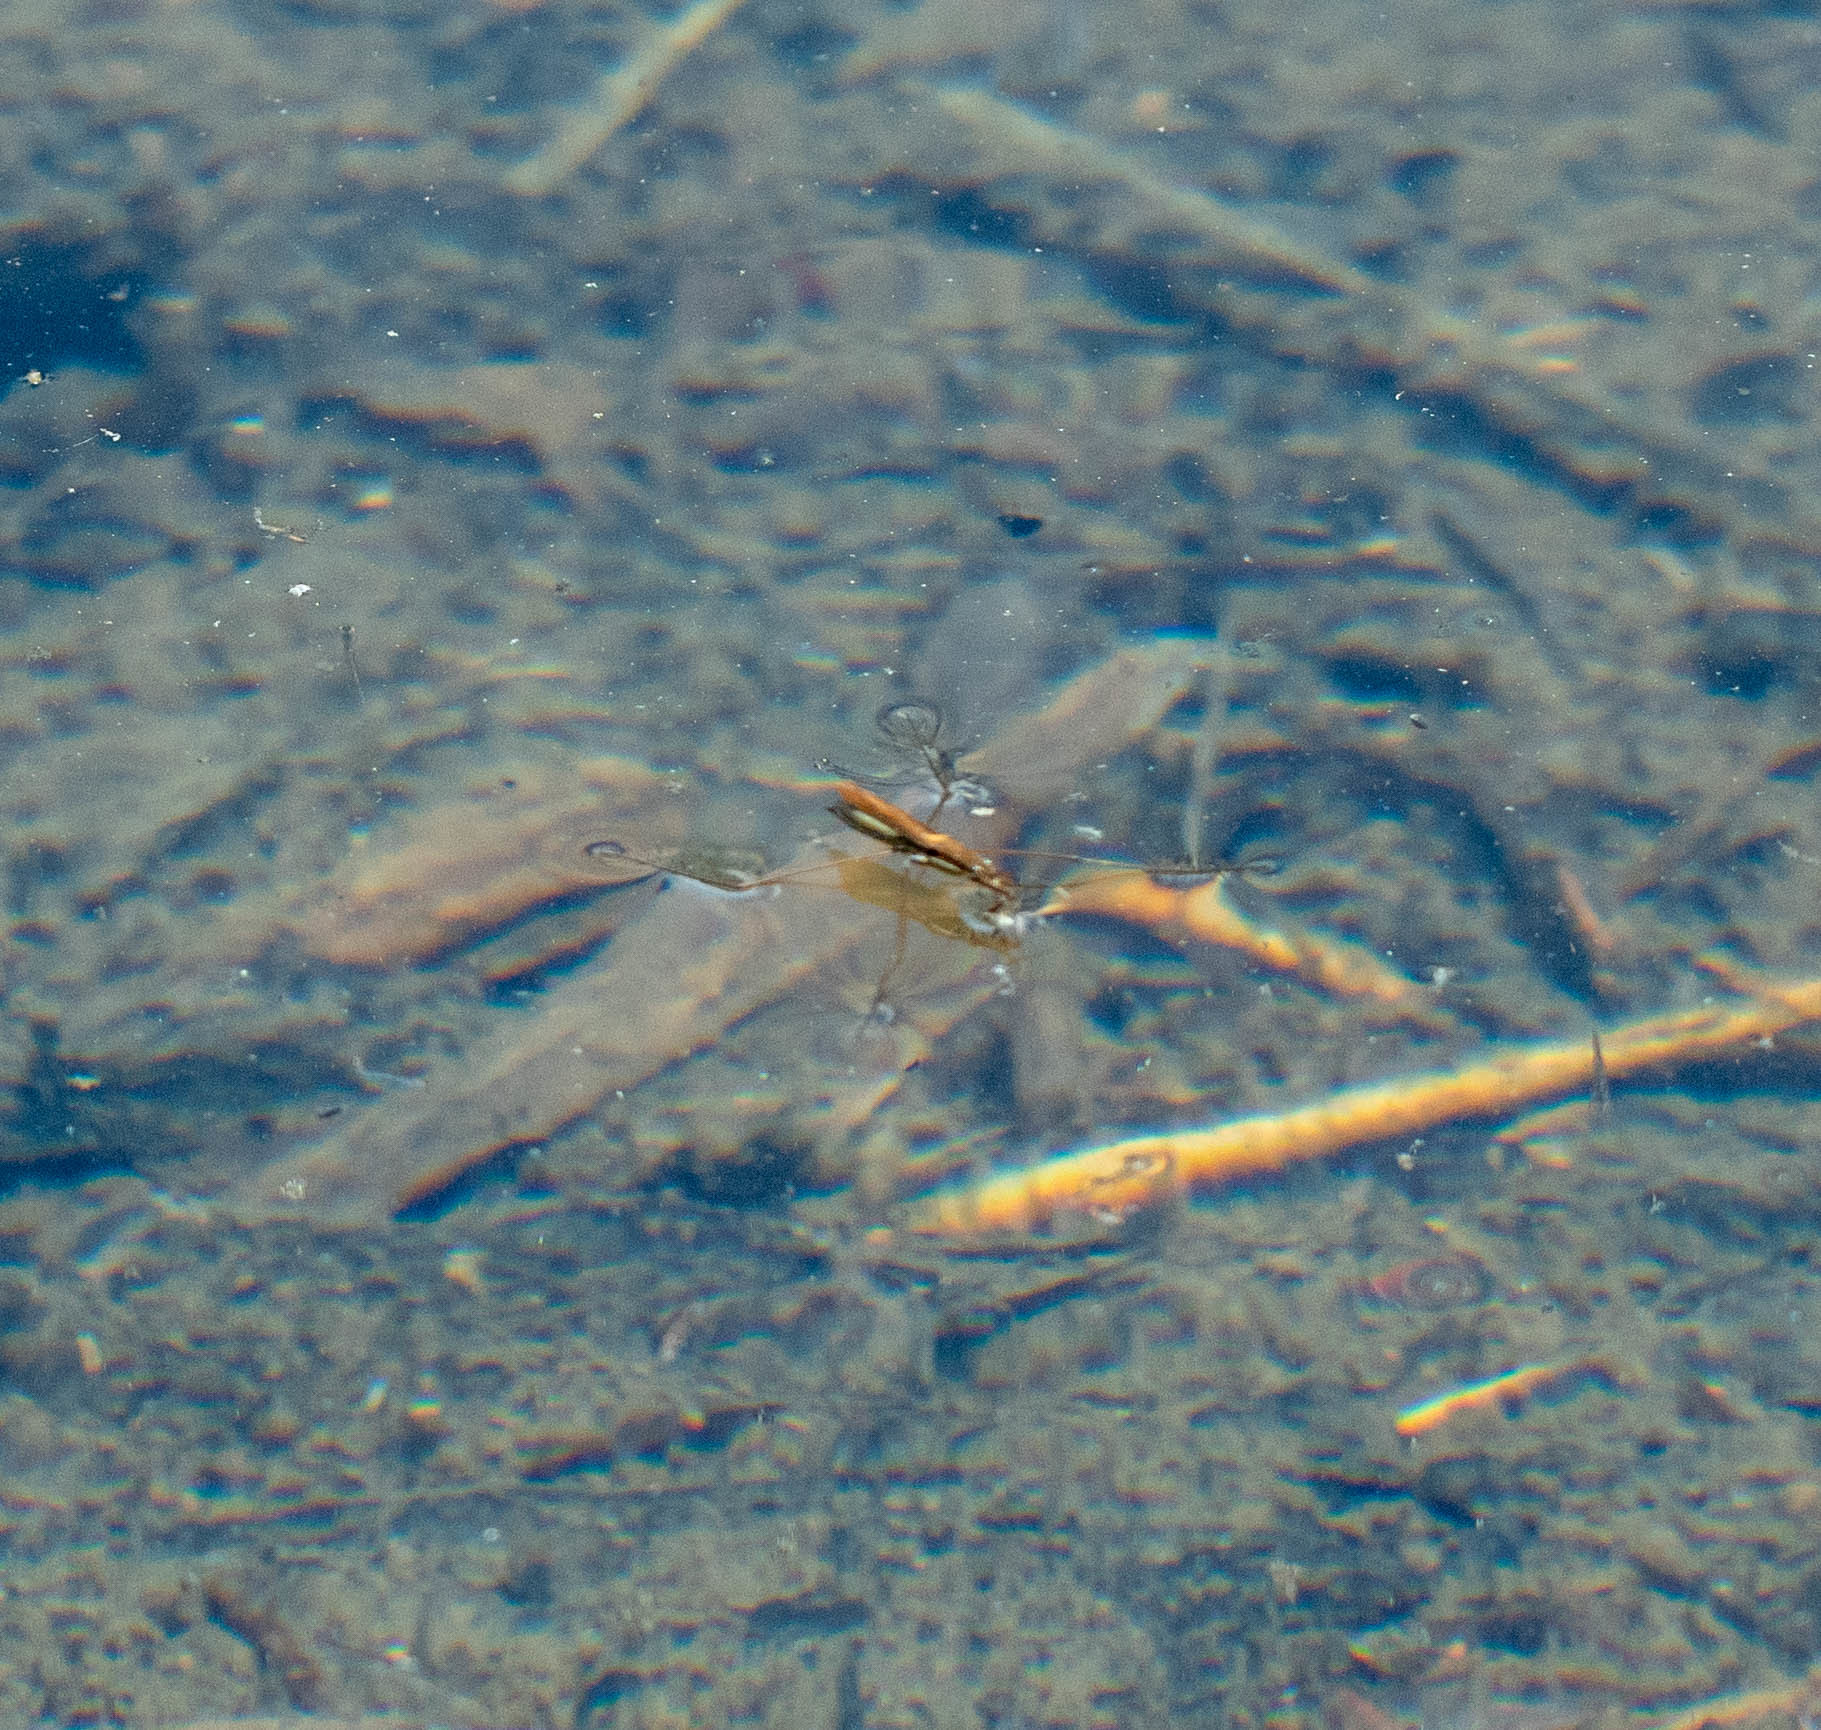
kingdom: Animalia
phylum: Arthropoda
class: Insecta
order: Hemiptera
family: Gerridae
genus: Limnoporus
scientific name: Limnoporus notabilis
